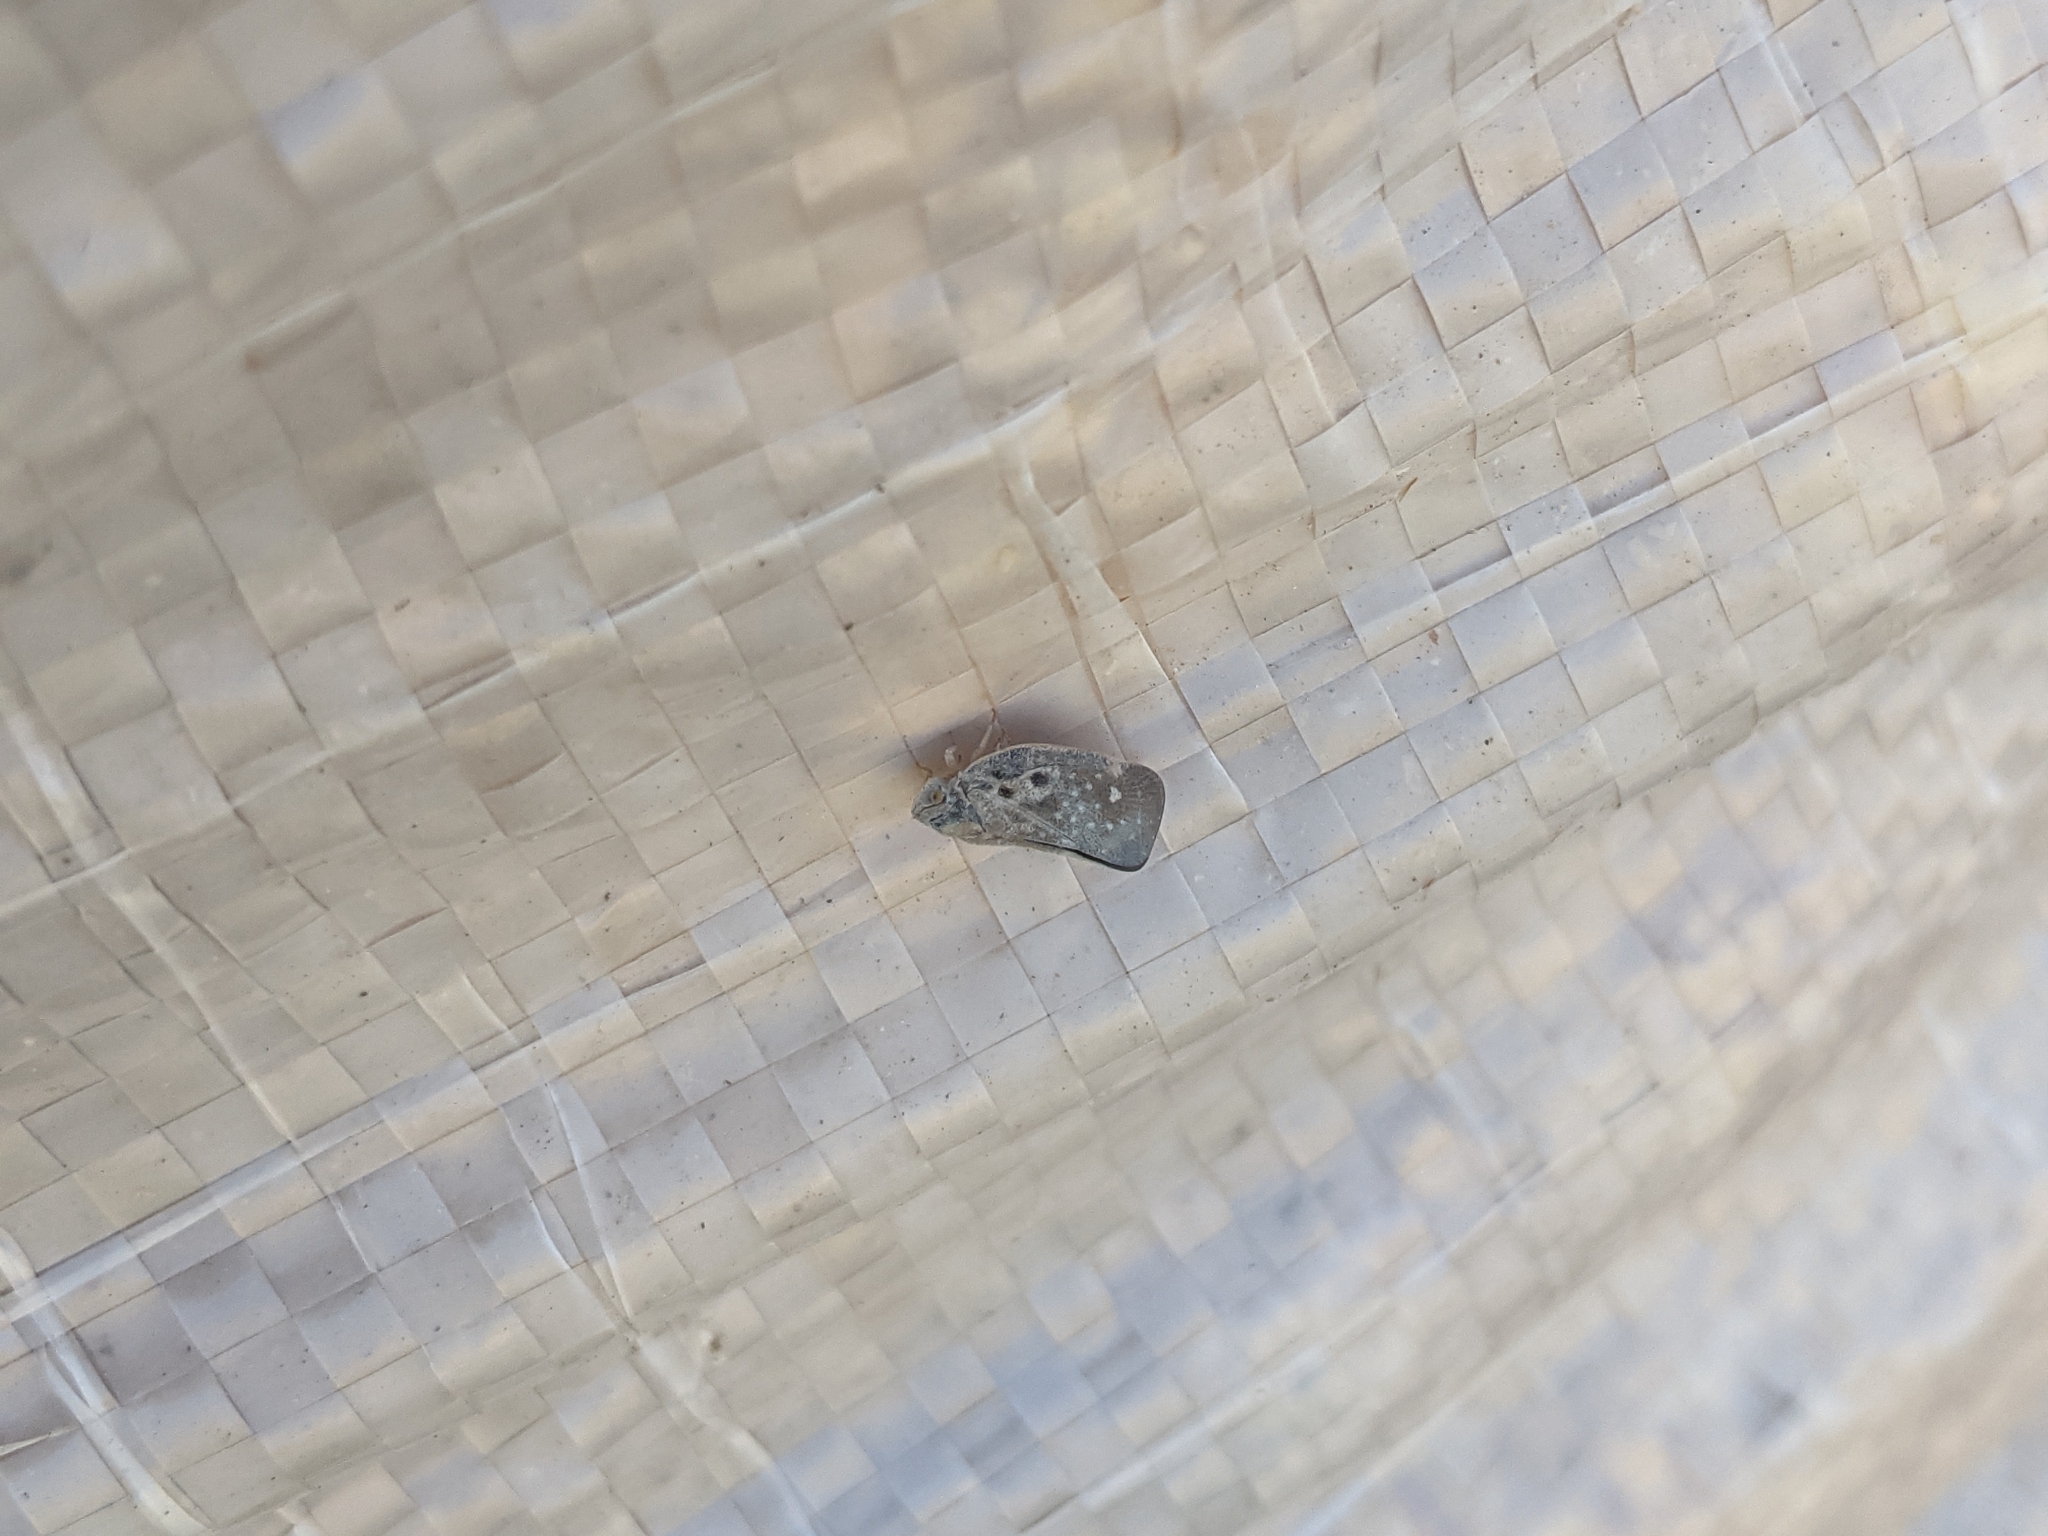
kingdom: Animalia
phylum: Arthropoda
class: Insecta
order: Hemiptera
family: Flatidae
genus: Metcalfa
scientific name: Metcalfa pruinosa
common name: Citrus flatid planthopper
